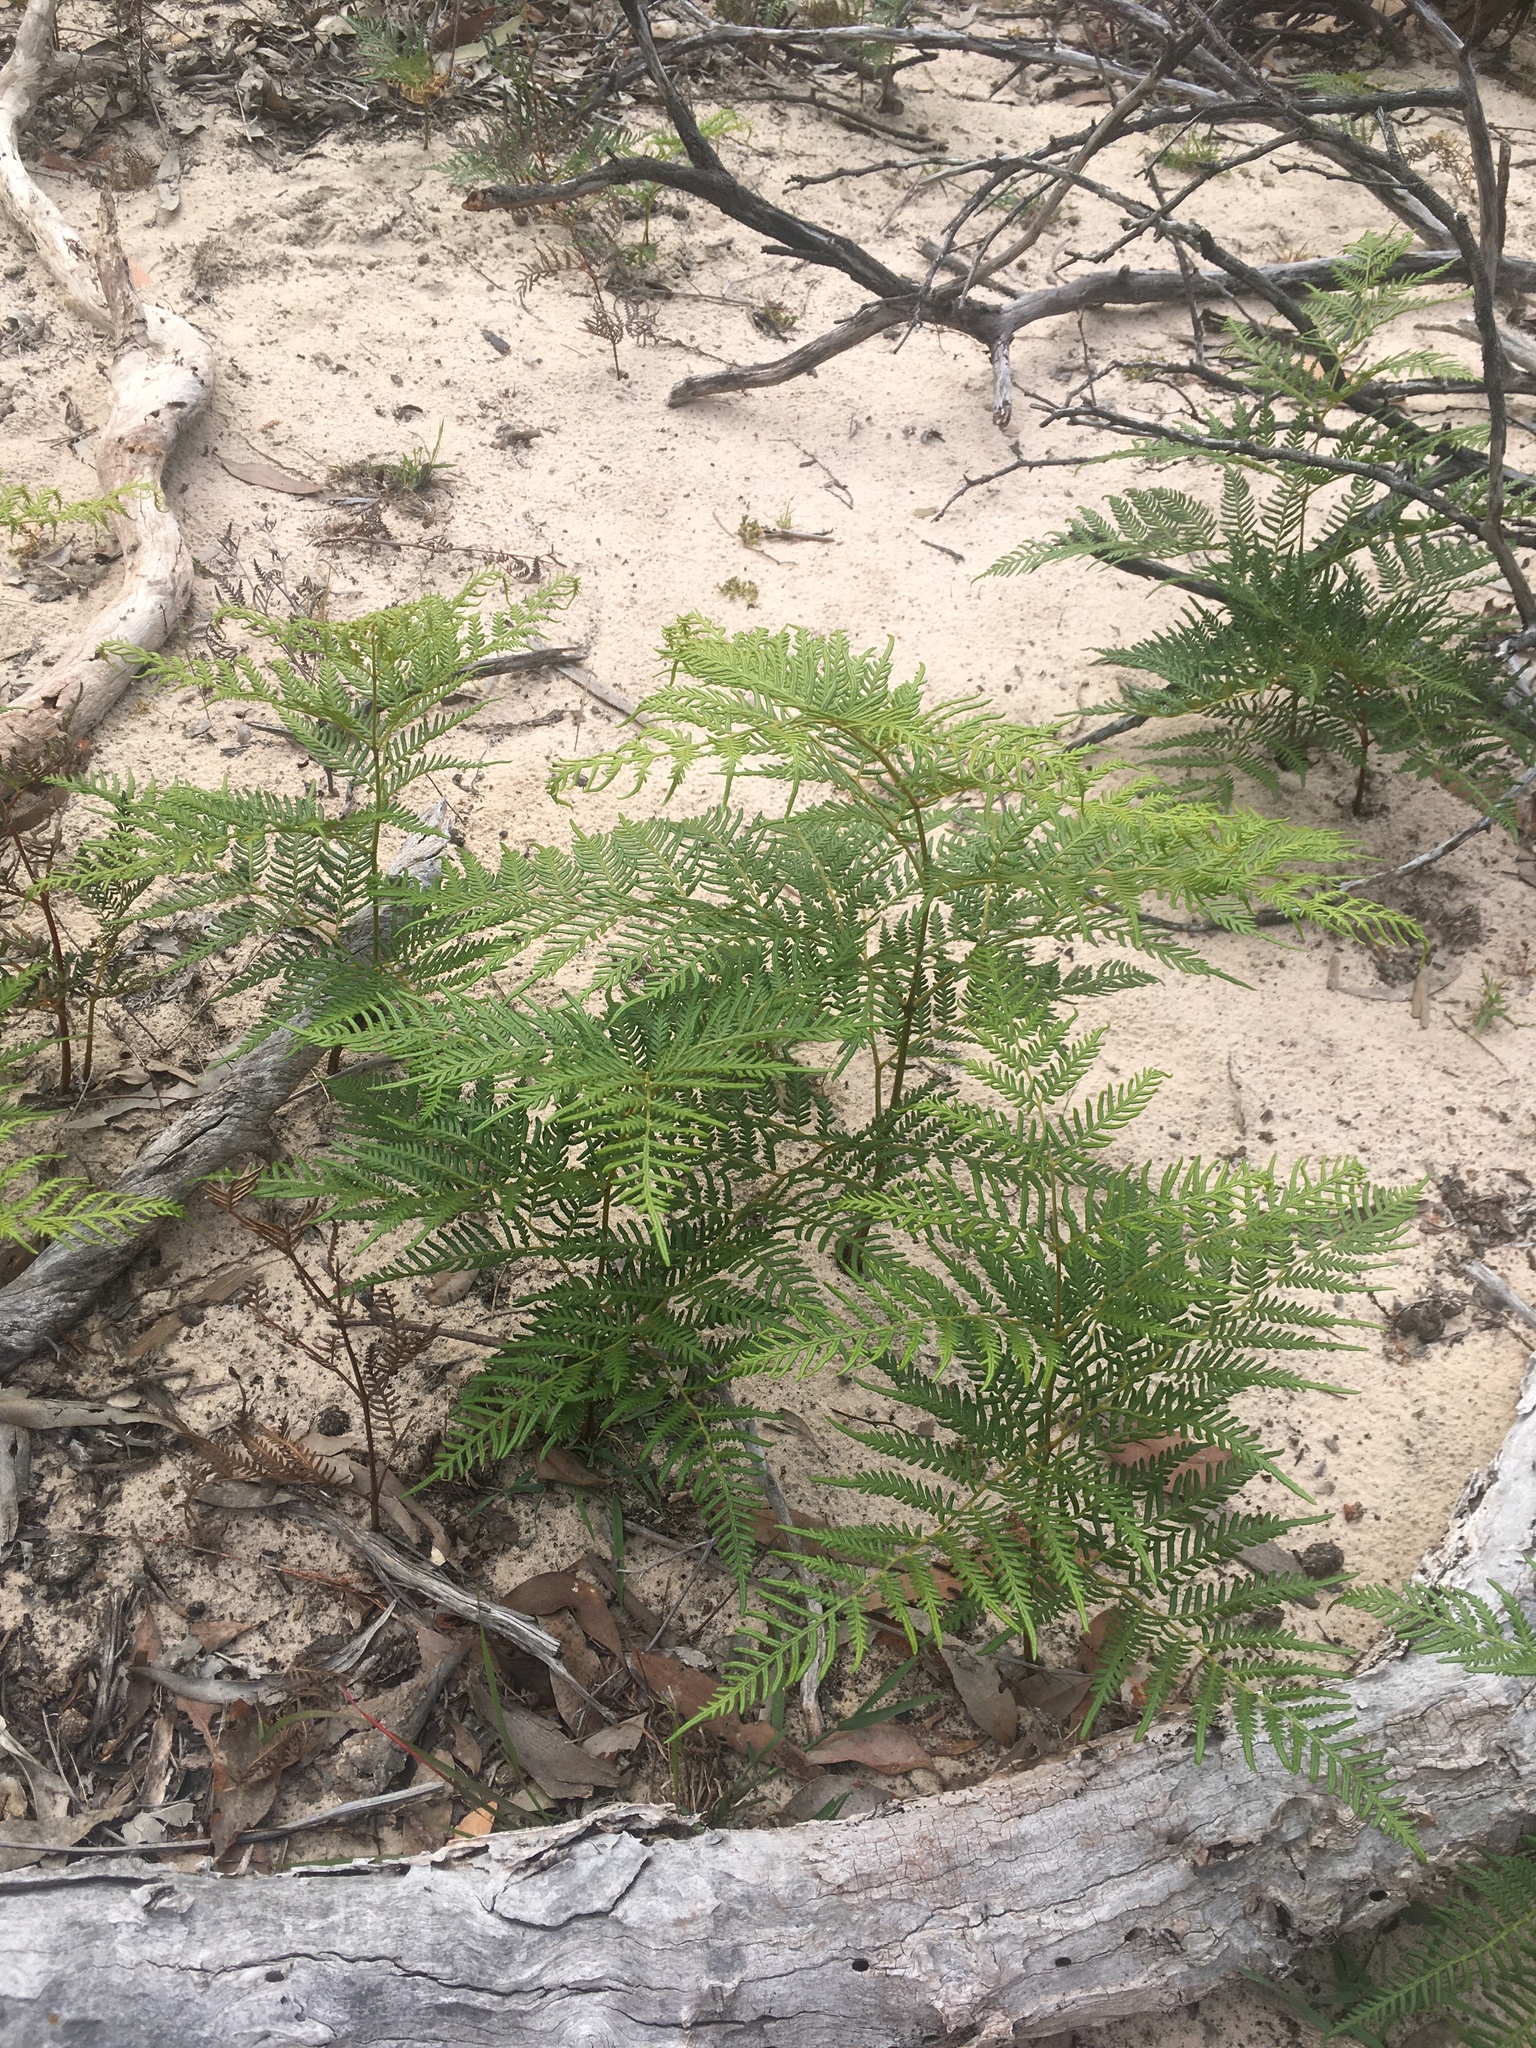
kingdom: Plantae
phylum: Tracheophyta
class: Polypodiopsida
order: Polypodiales
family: Dennstaedtiaceae
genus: Pteridium
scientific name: Pteridium esculentum
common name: Bracken fern
